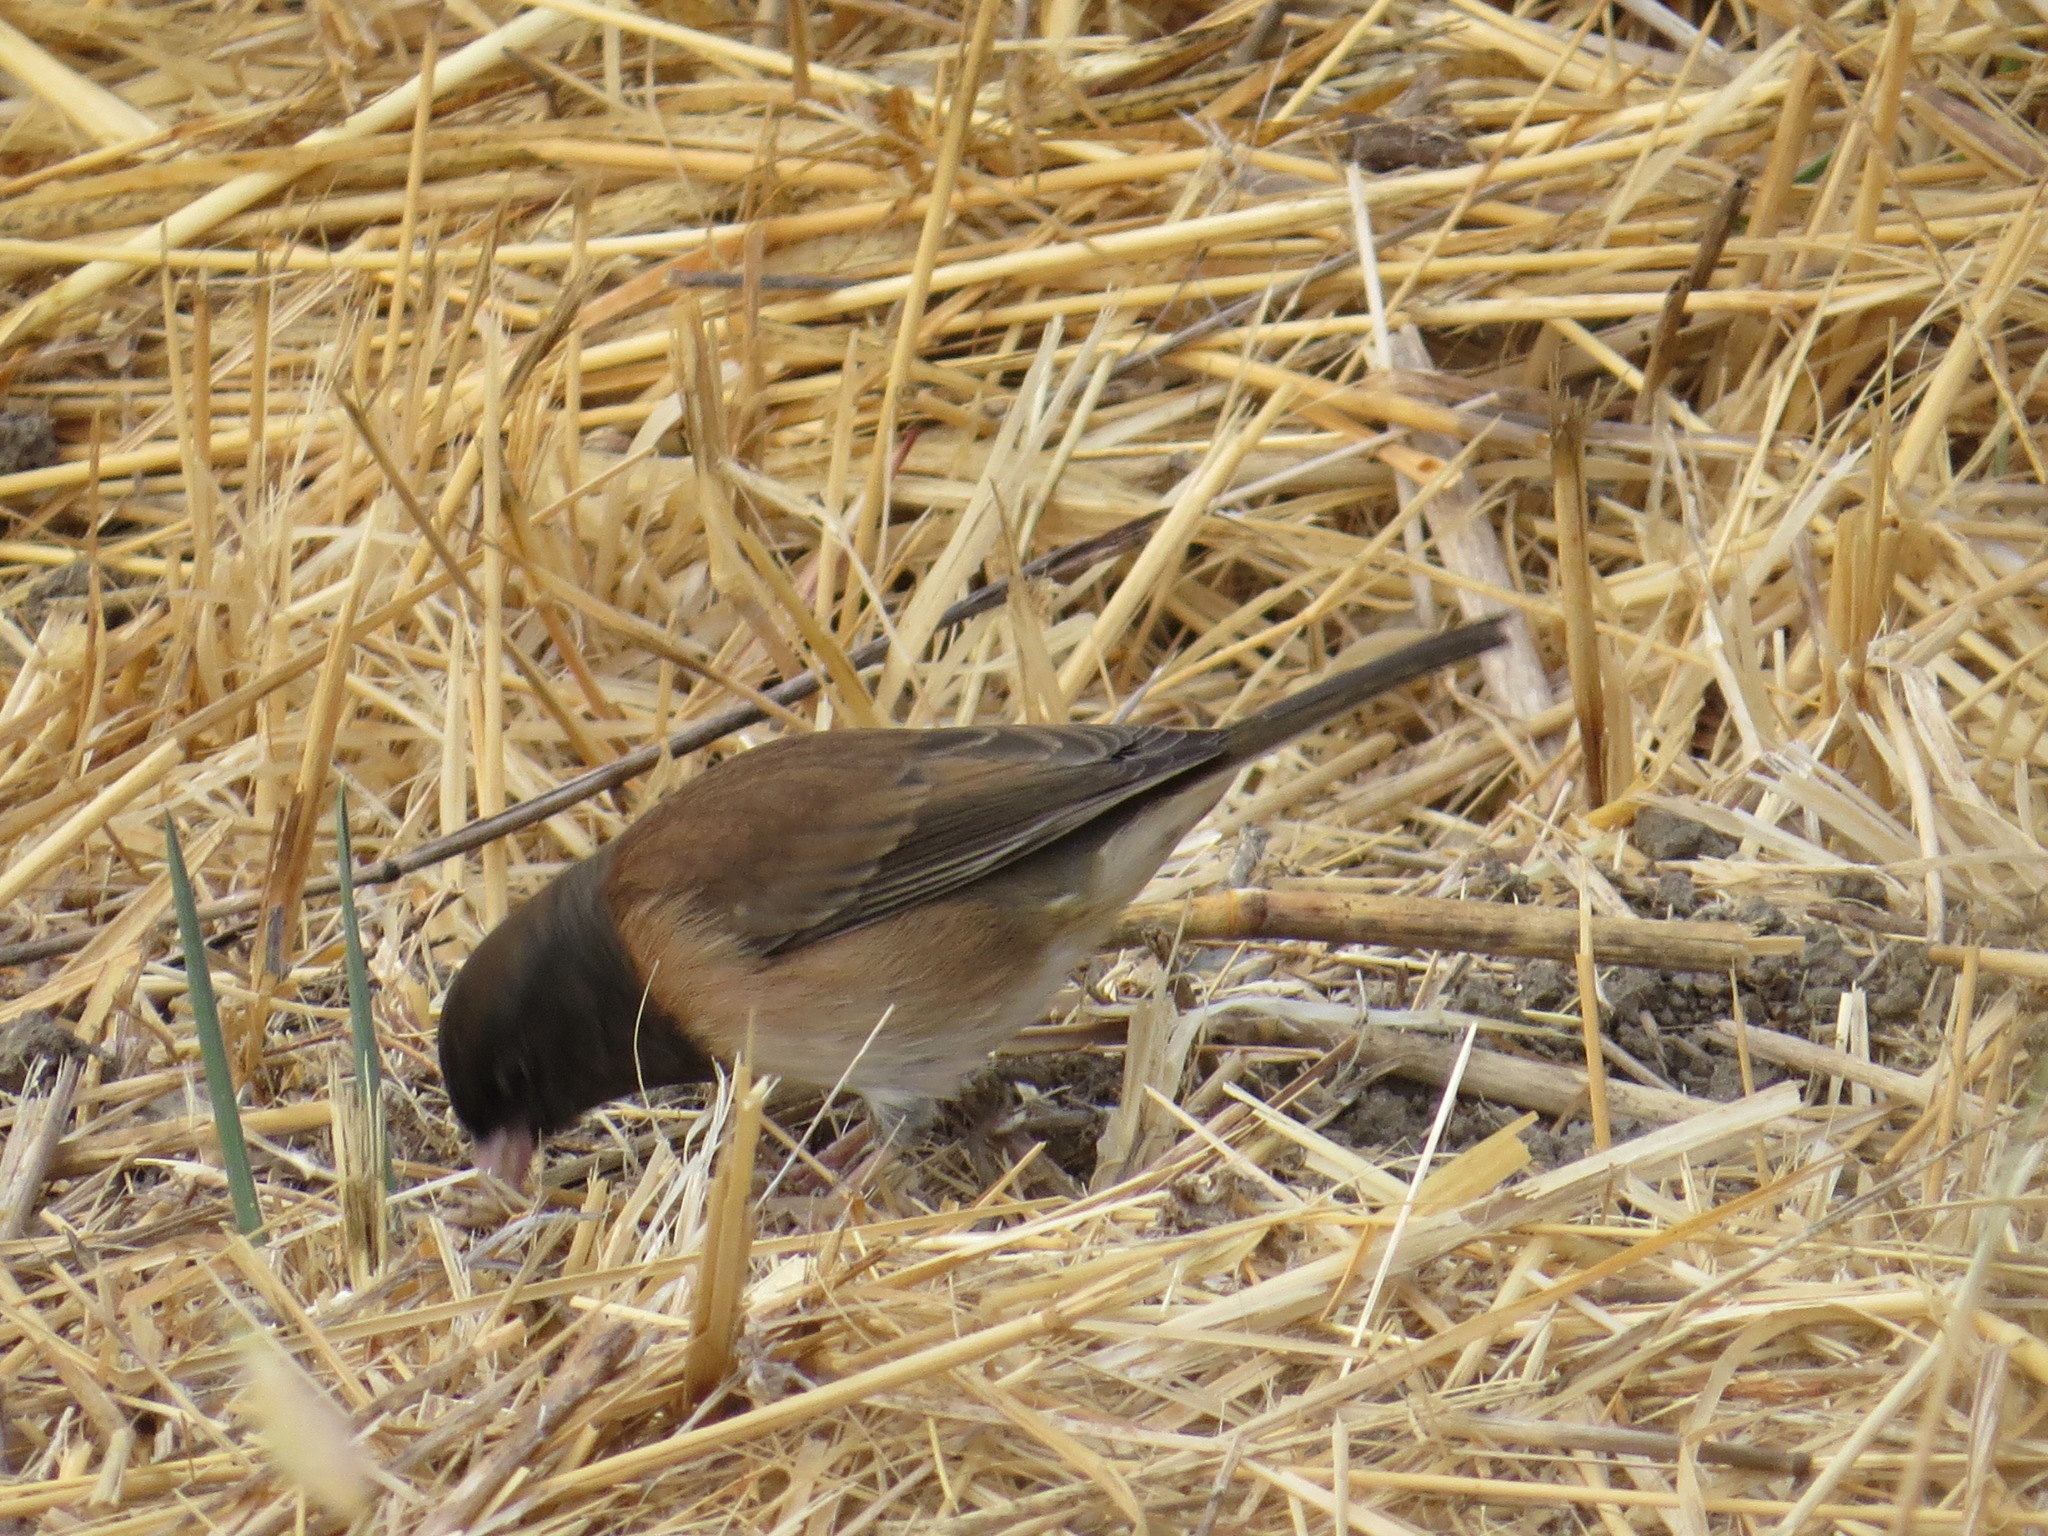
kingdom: Animalia
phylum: Chordata
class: Aves
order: Passeriformes
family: Passerellidae
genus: Junco
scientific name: Junco hyemalis
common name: Dark-eyed junco
